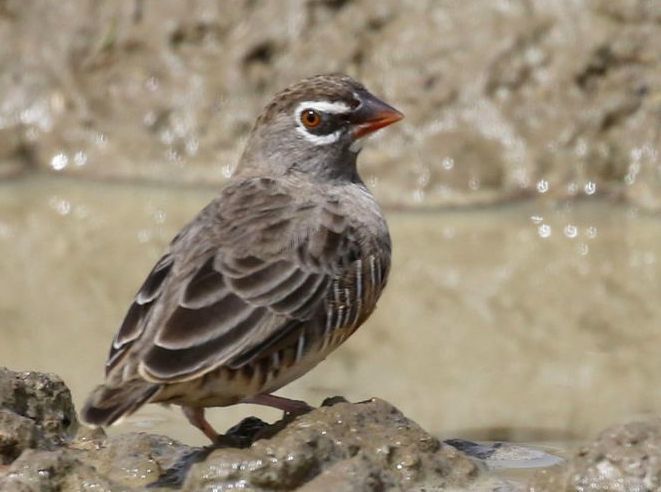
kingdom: Animalia
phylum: Chordata
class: Aves
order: Passeriformes
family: Estrildidae
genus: Ortygospiza
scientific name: Ortygospiza atricollis
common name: Quailfinch
